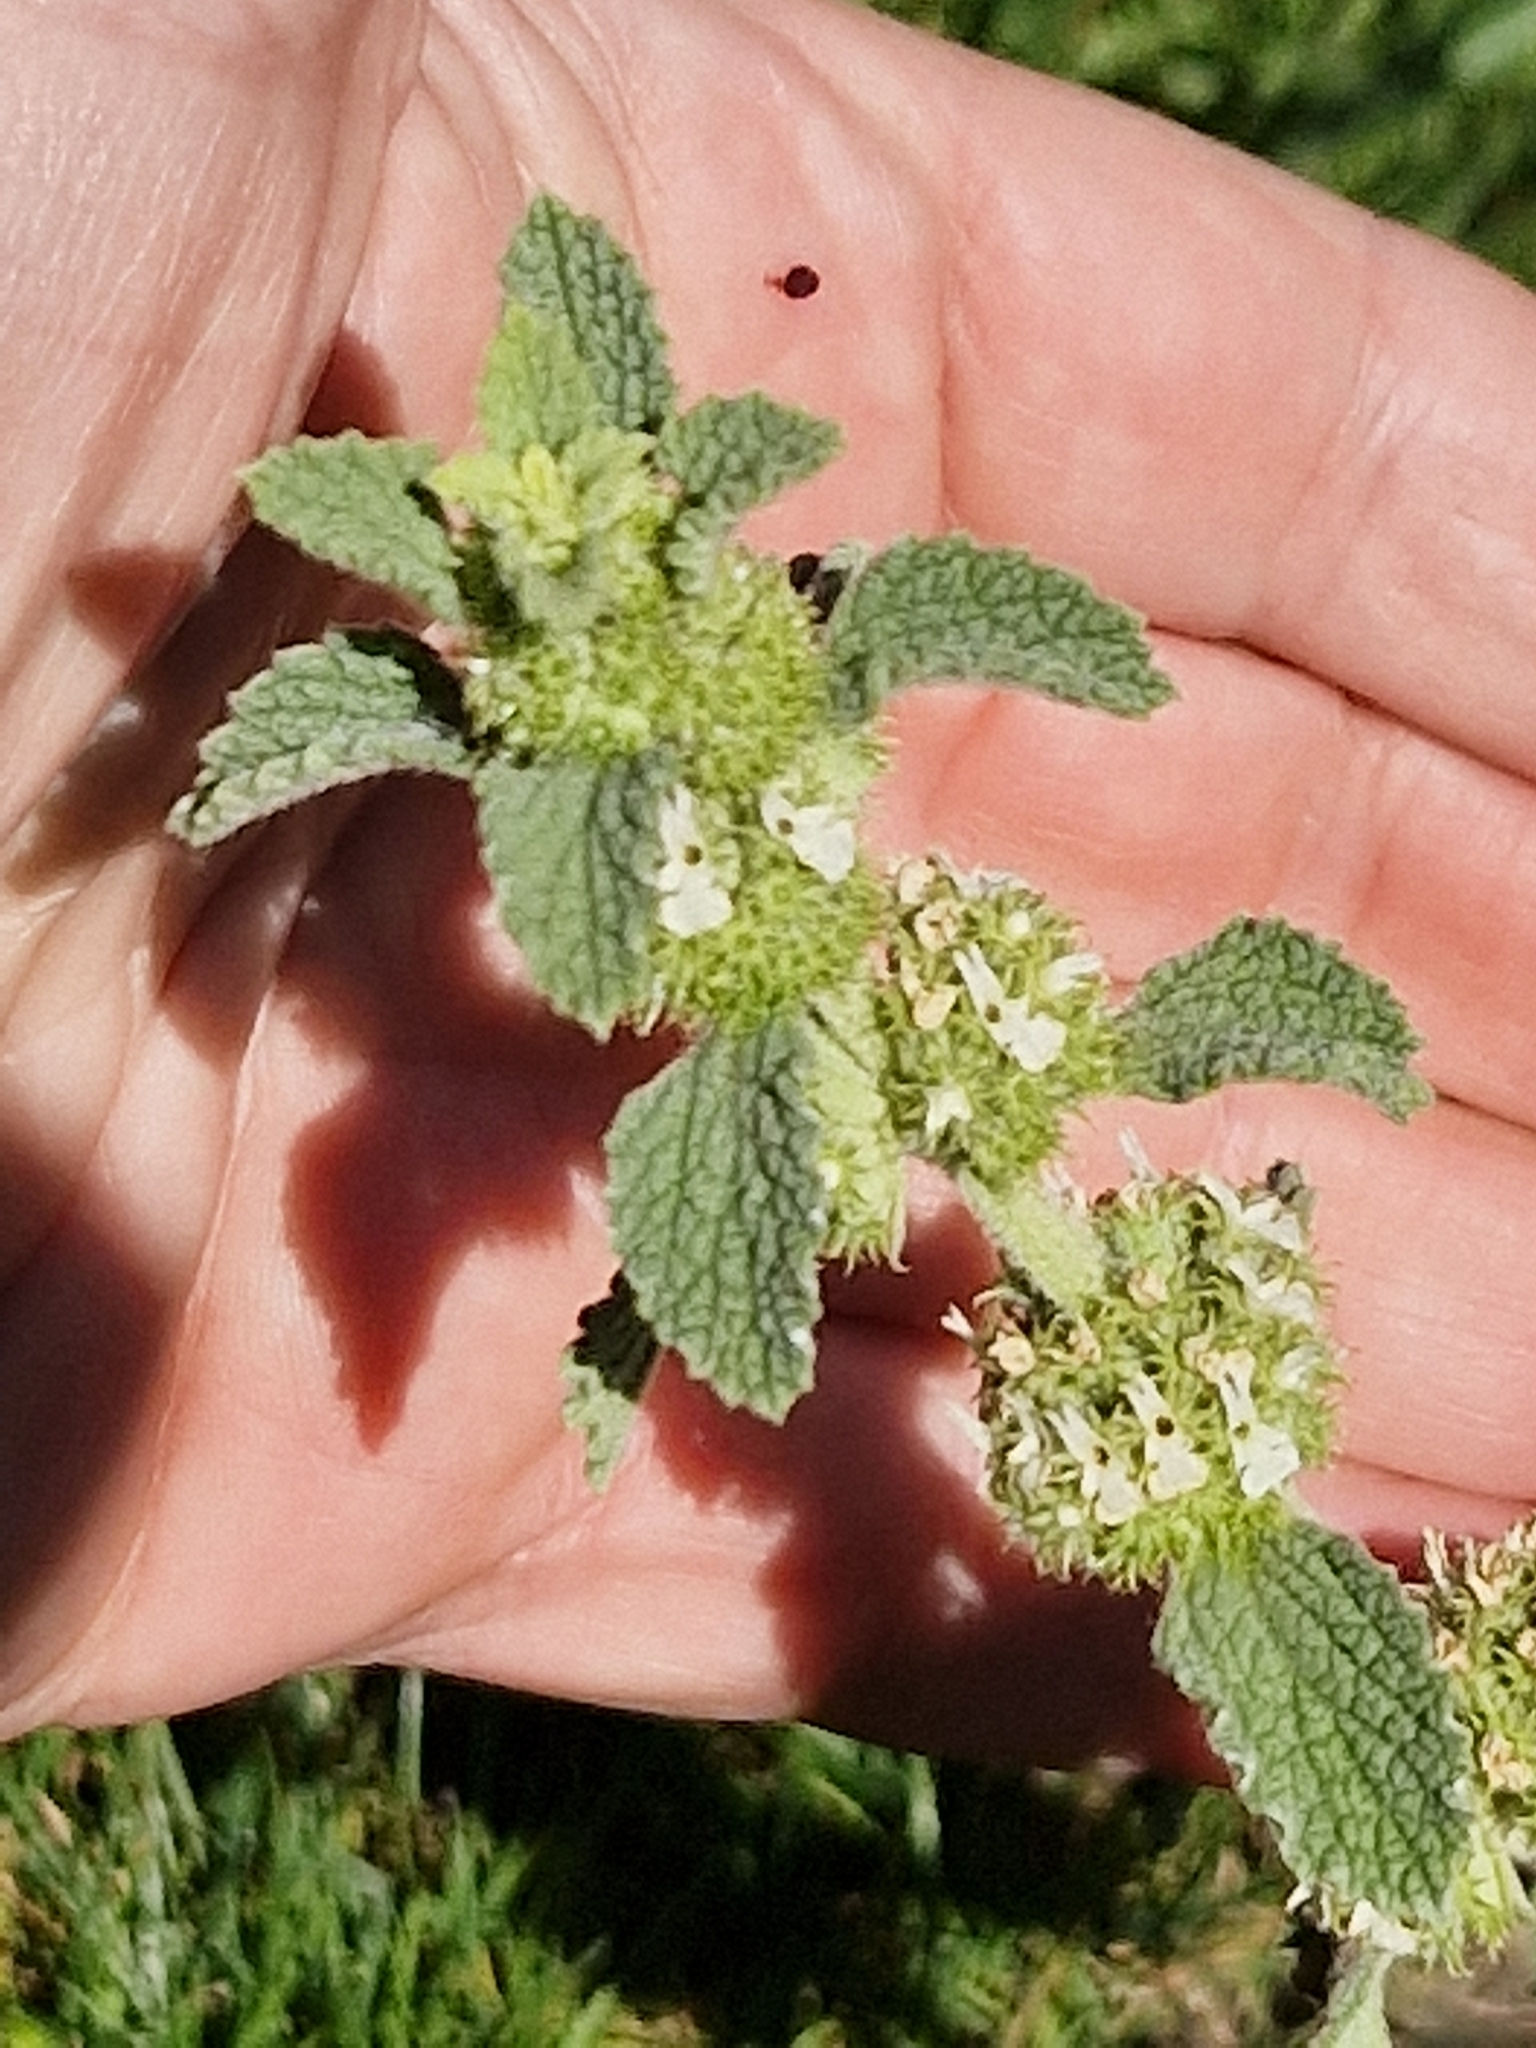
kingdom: Plantae
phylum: Tracheophyta
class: Magnoliopsida
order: Lamiales
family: Lamiaceae
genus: Marrubium
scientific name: Marrubium vulgare
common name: Horehound
